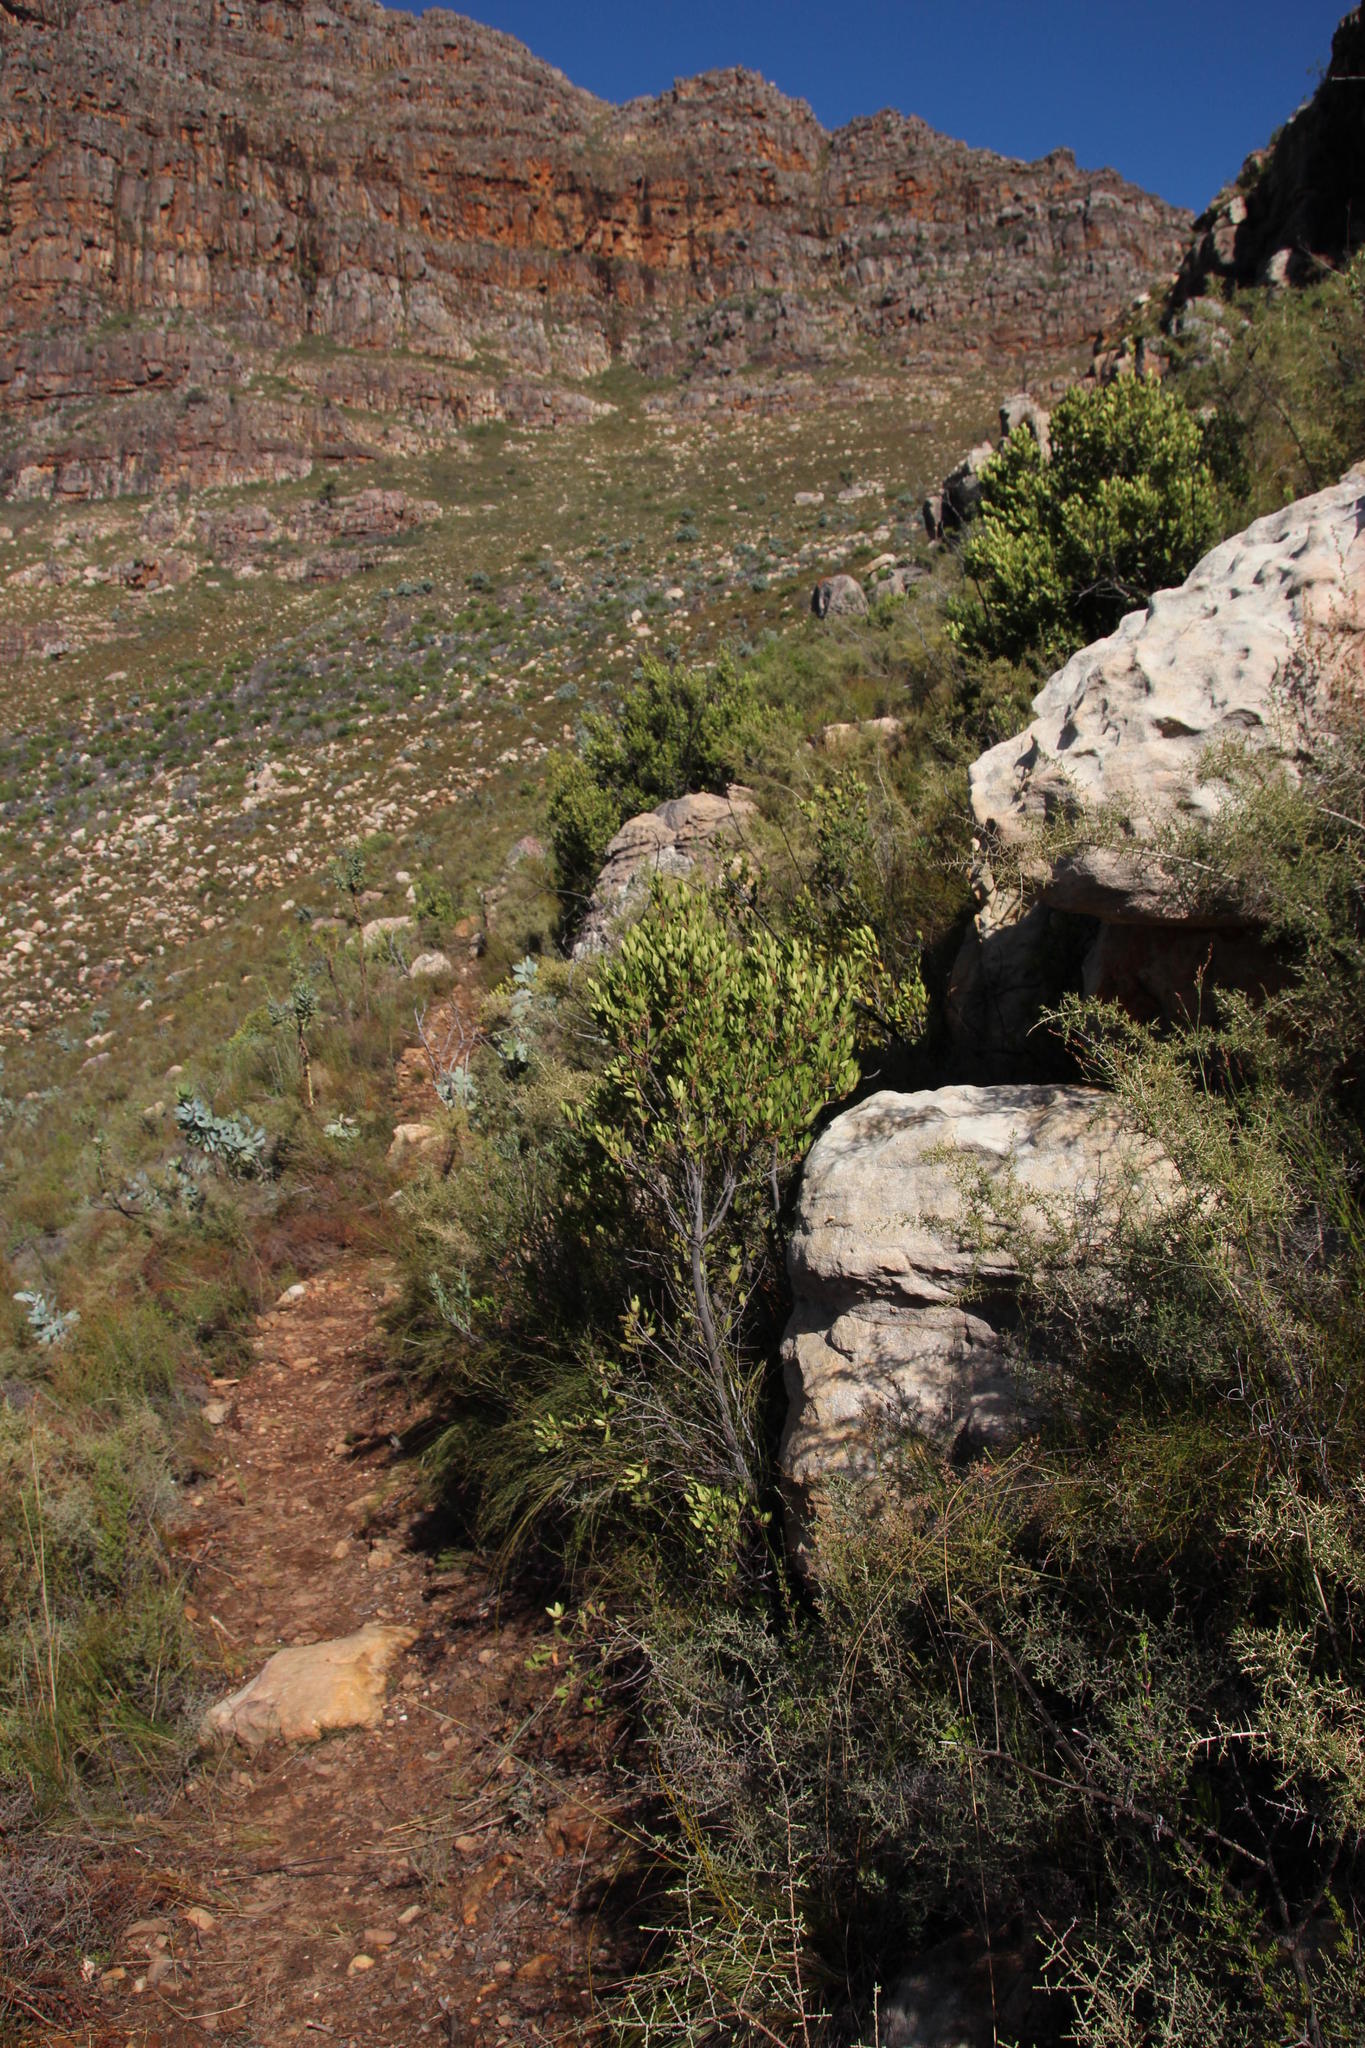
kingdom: Plantae
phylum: Tracheophyta
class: Magnoliopsida
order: Celastrales
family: Celastraceae
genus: Gymnosporia
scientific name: Gymnosporia laurina
